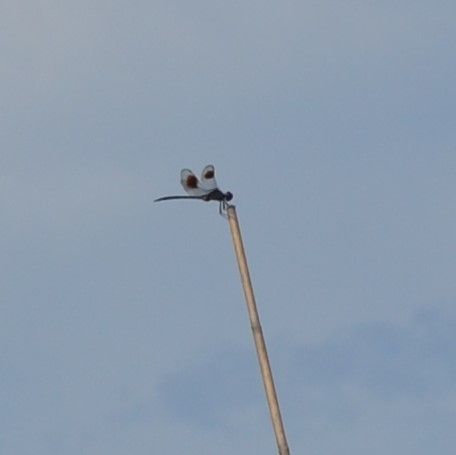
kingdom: Animalia
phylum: Arthropoda
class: Insecta
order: Odonata
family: Libellulidae
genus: Brachymesia
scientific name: Brachymesia gravida
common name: Four-spotted pennant
